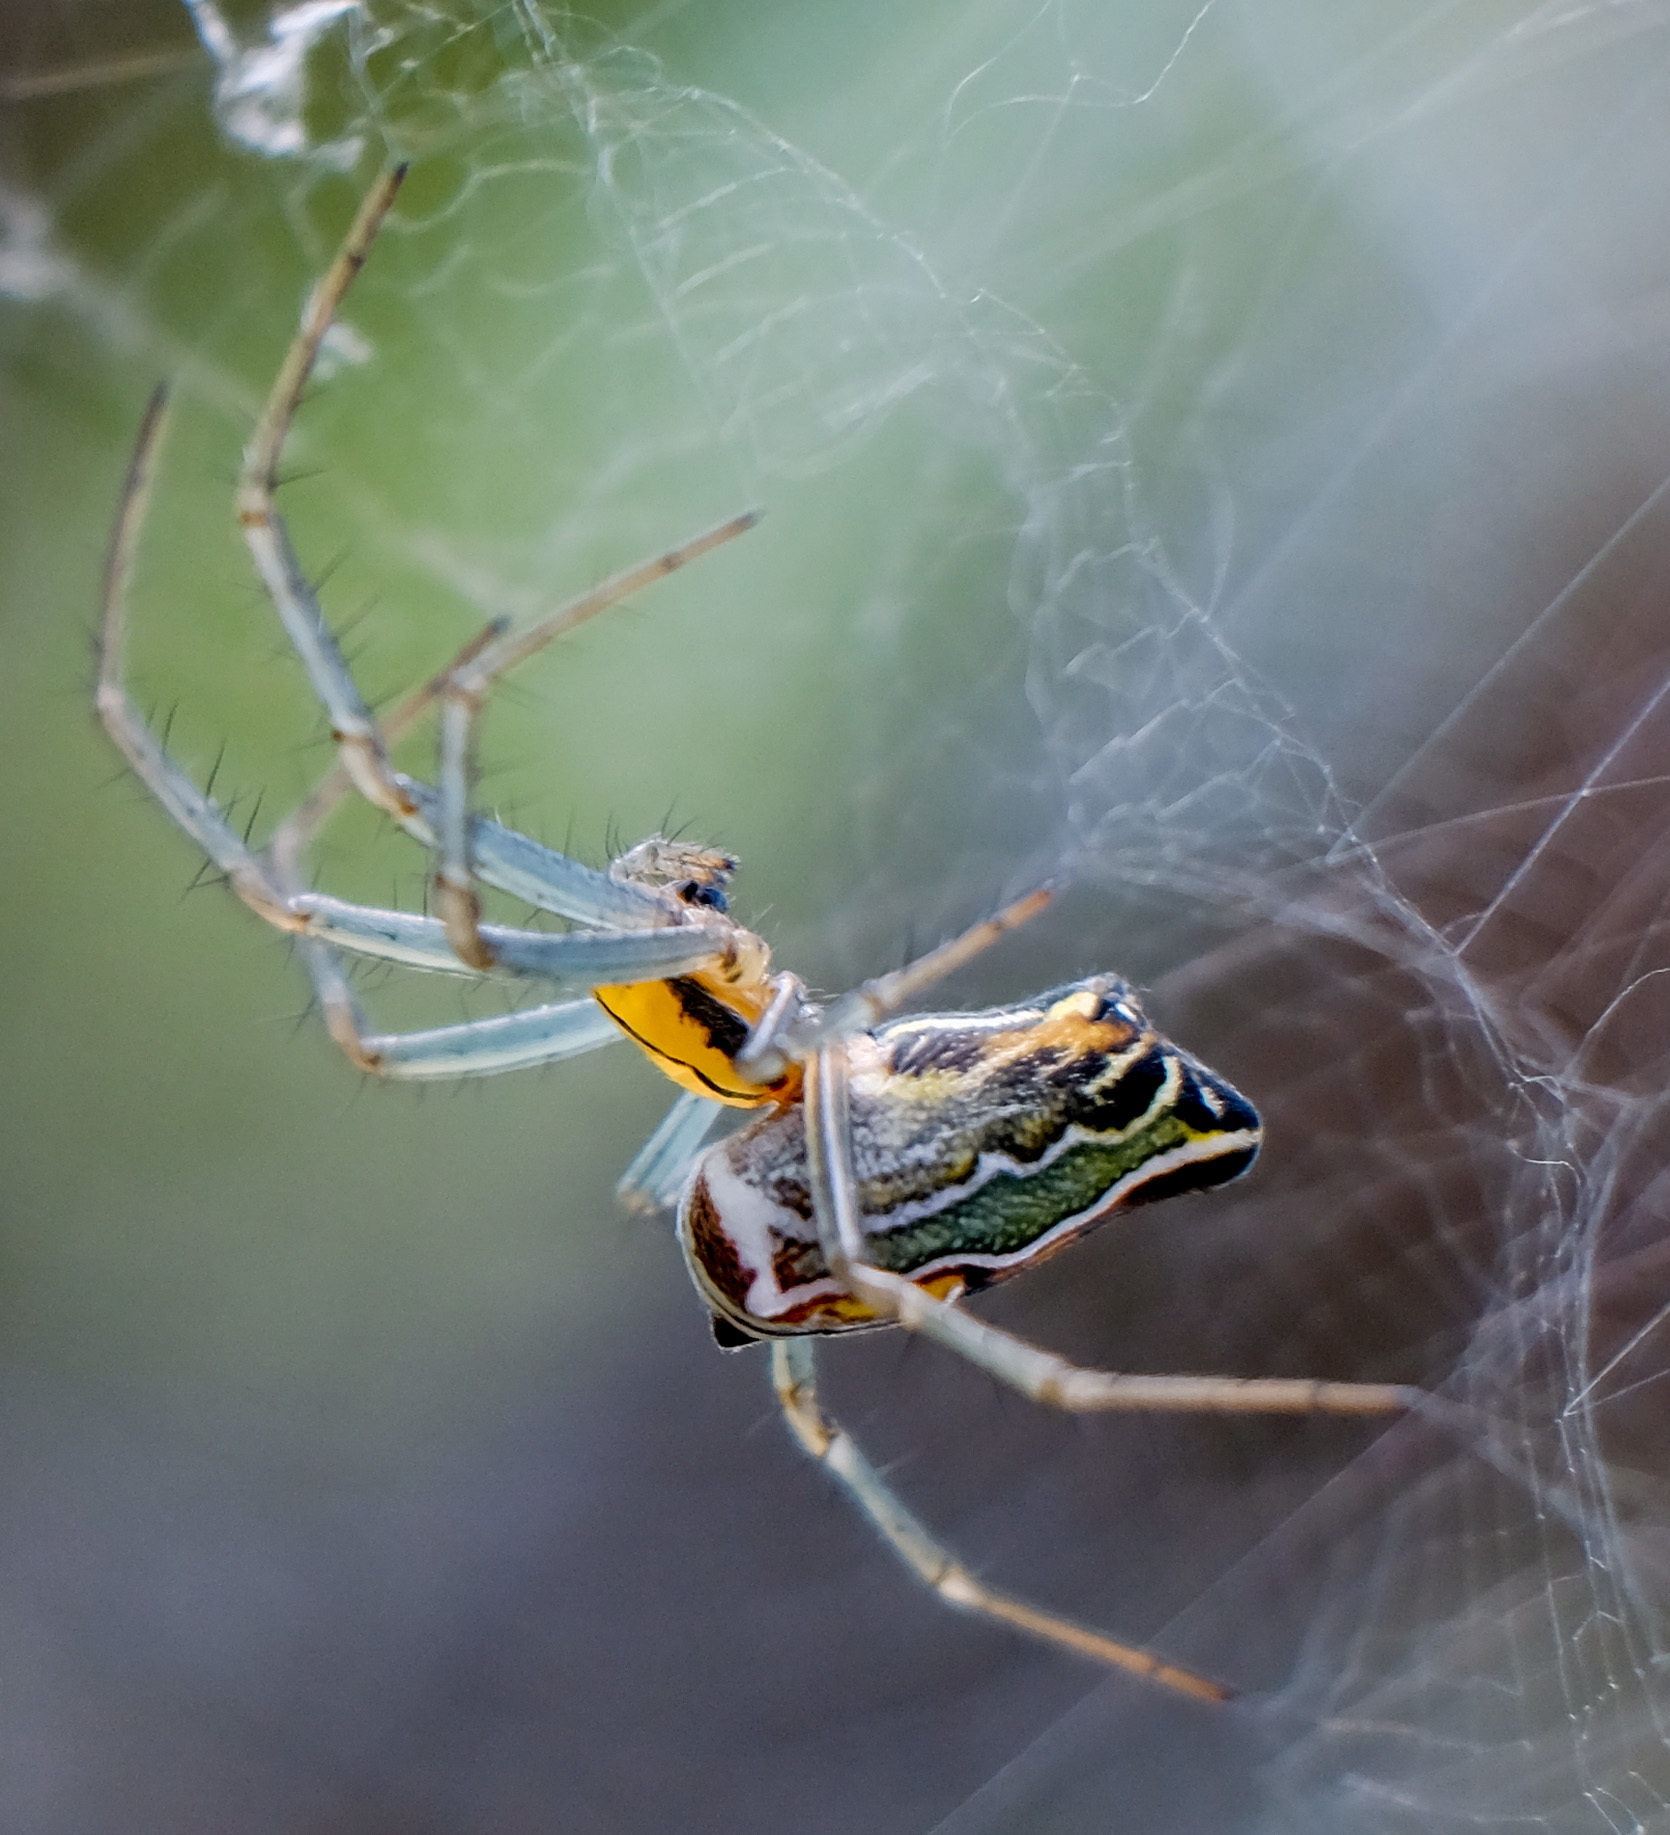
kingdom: Animalia
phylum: Arthropoda
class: Arachnida
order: Araneae
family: Araneidae
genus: Mecynogea
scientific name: Mecynogea lemniscata
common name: Orb weavers
